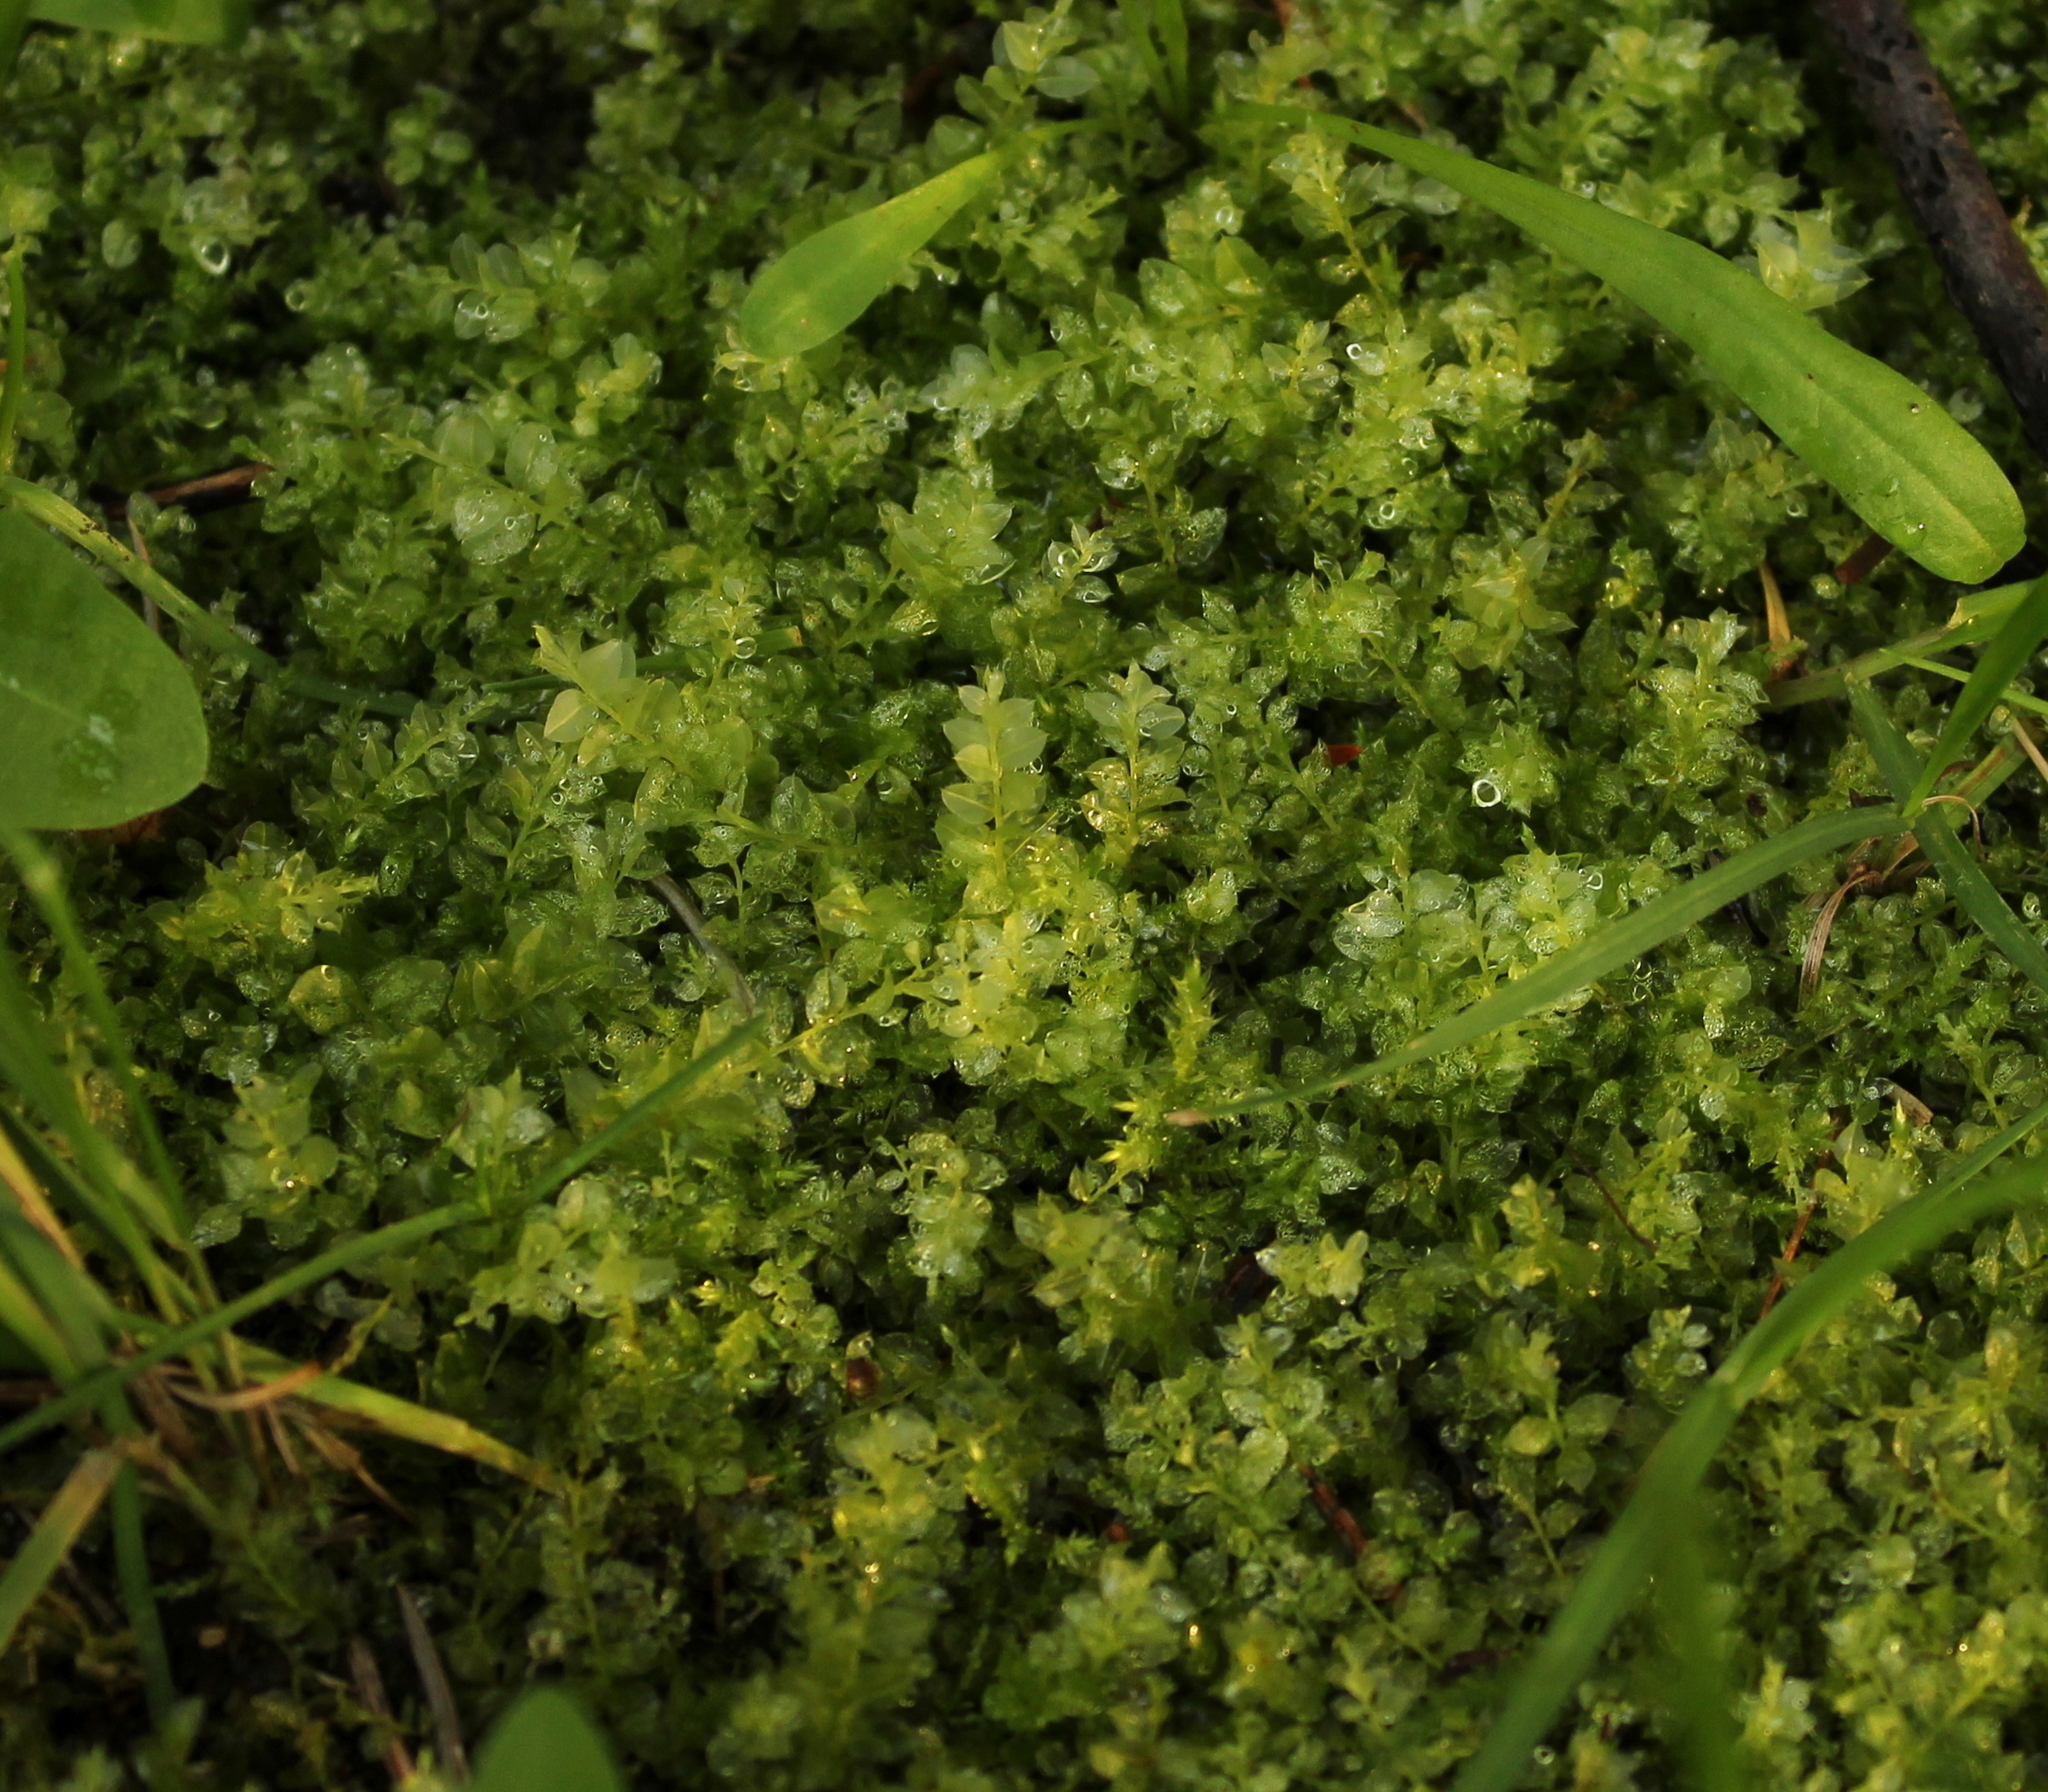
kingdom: Plantae
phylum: Bryophyta
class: Bryopsida
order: Bryales
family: Mniaceae
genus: Plagiomnium
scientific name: Plagiomnium cuspidatum
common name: Woodsy leafy moss
